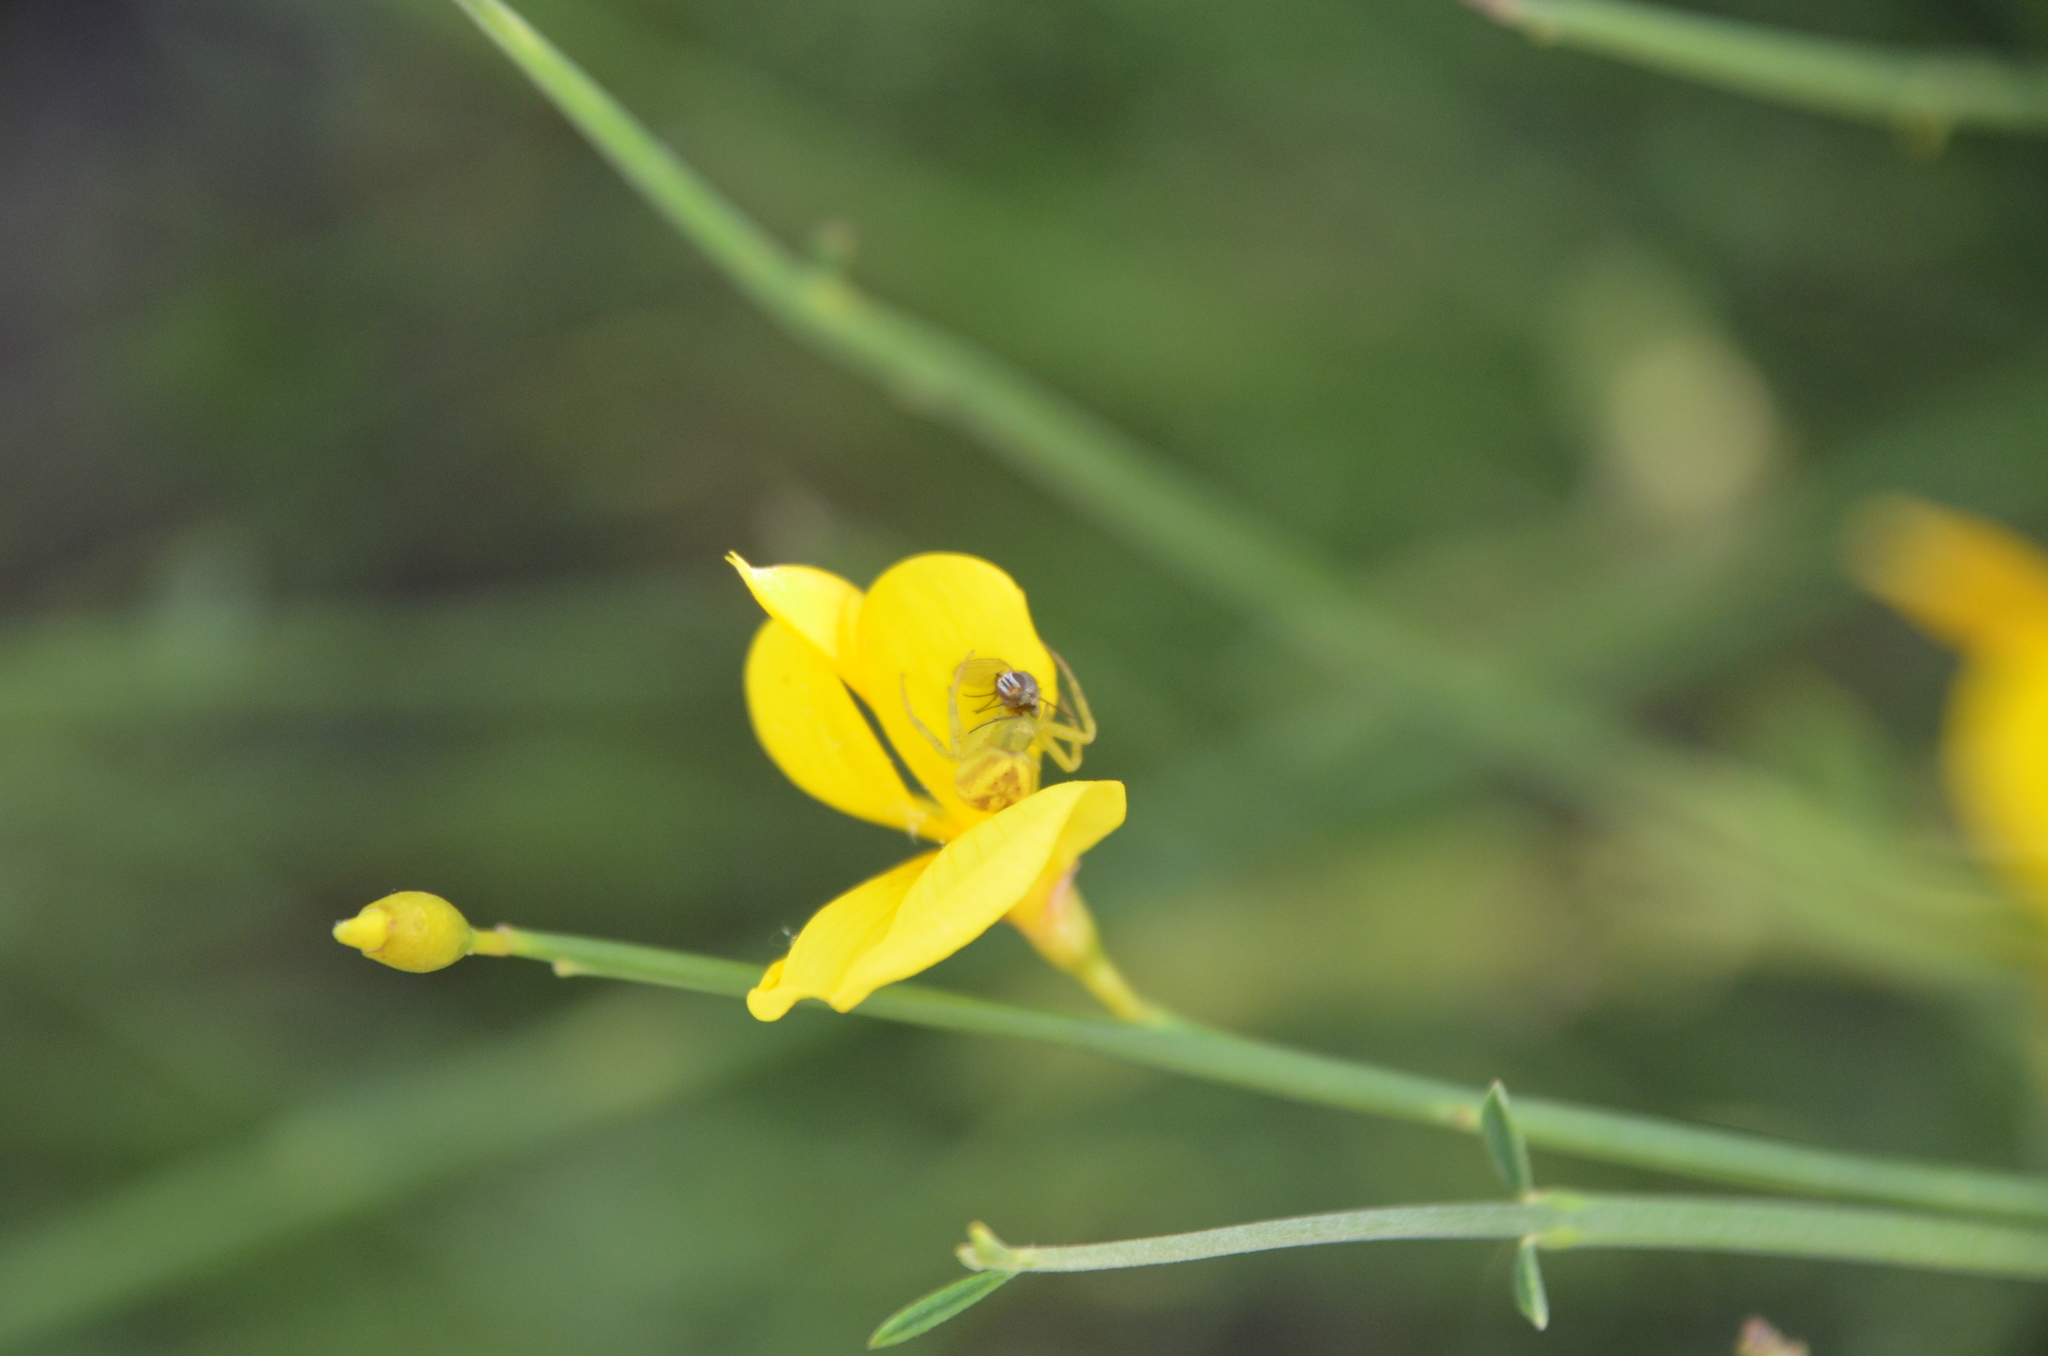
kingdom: Animalia
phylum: Arthropoda
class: Arachnida
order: Araneae
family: Thomisidae
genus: Misumenops
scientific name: Misumenops
